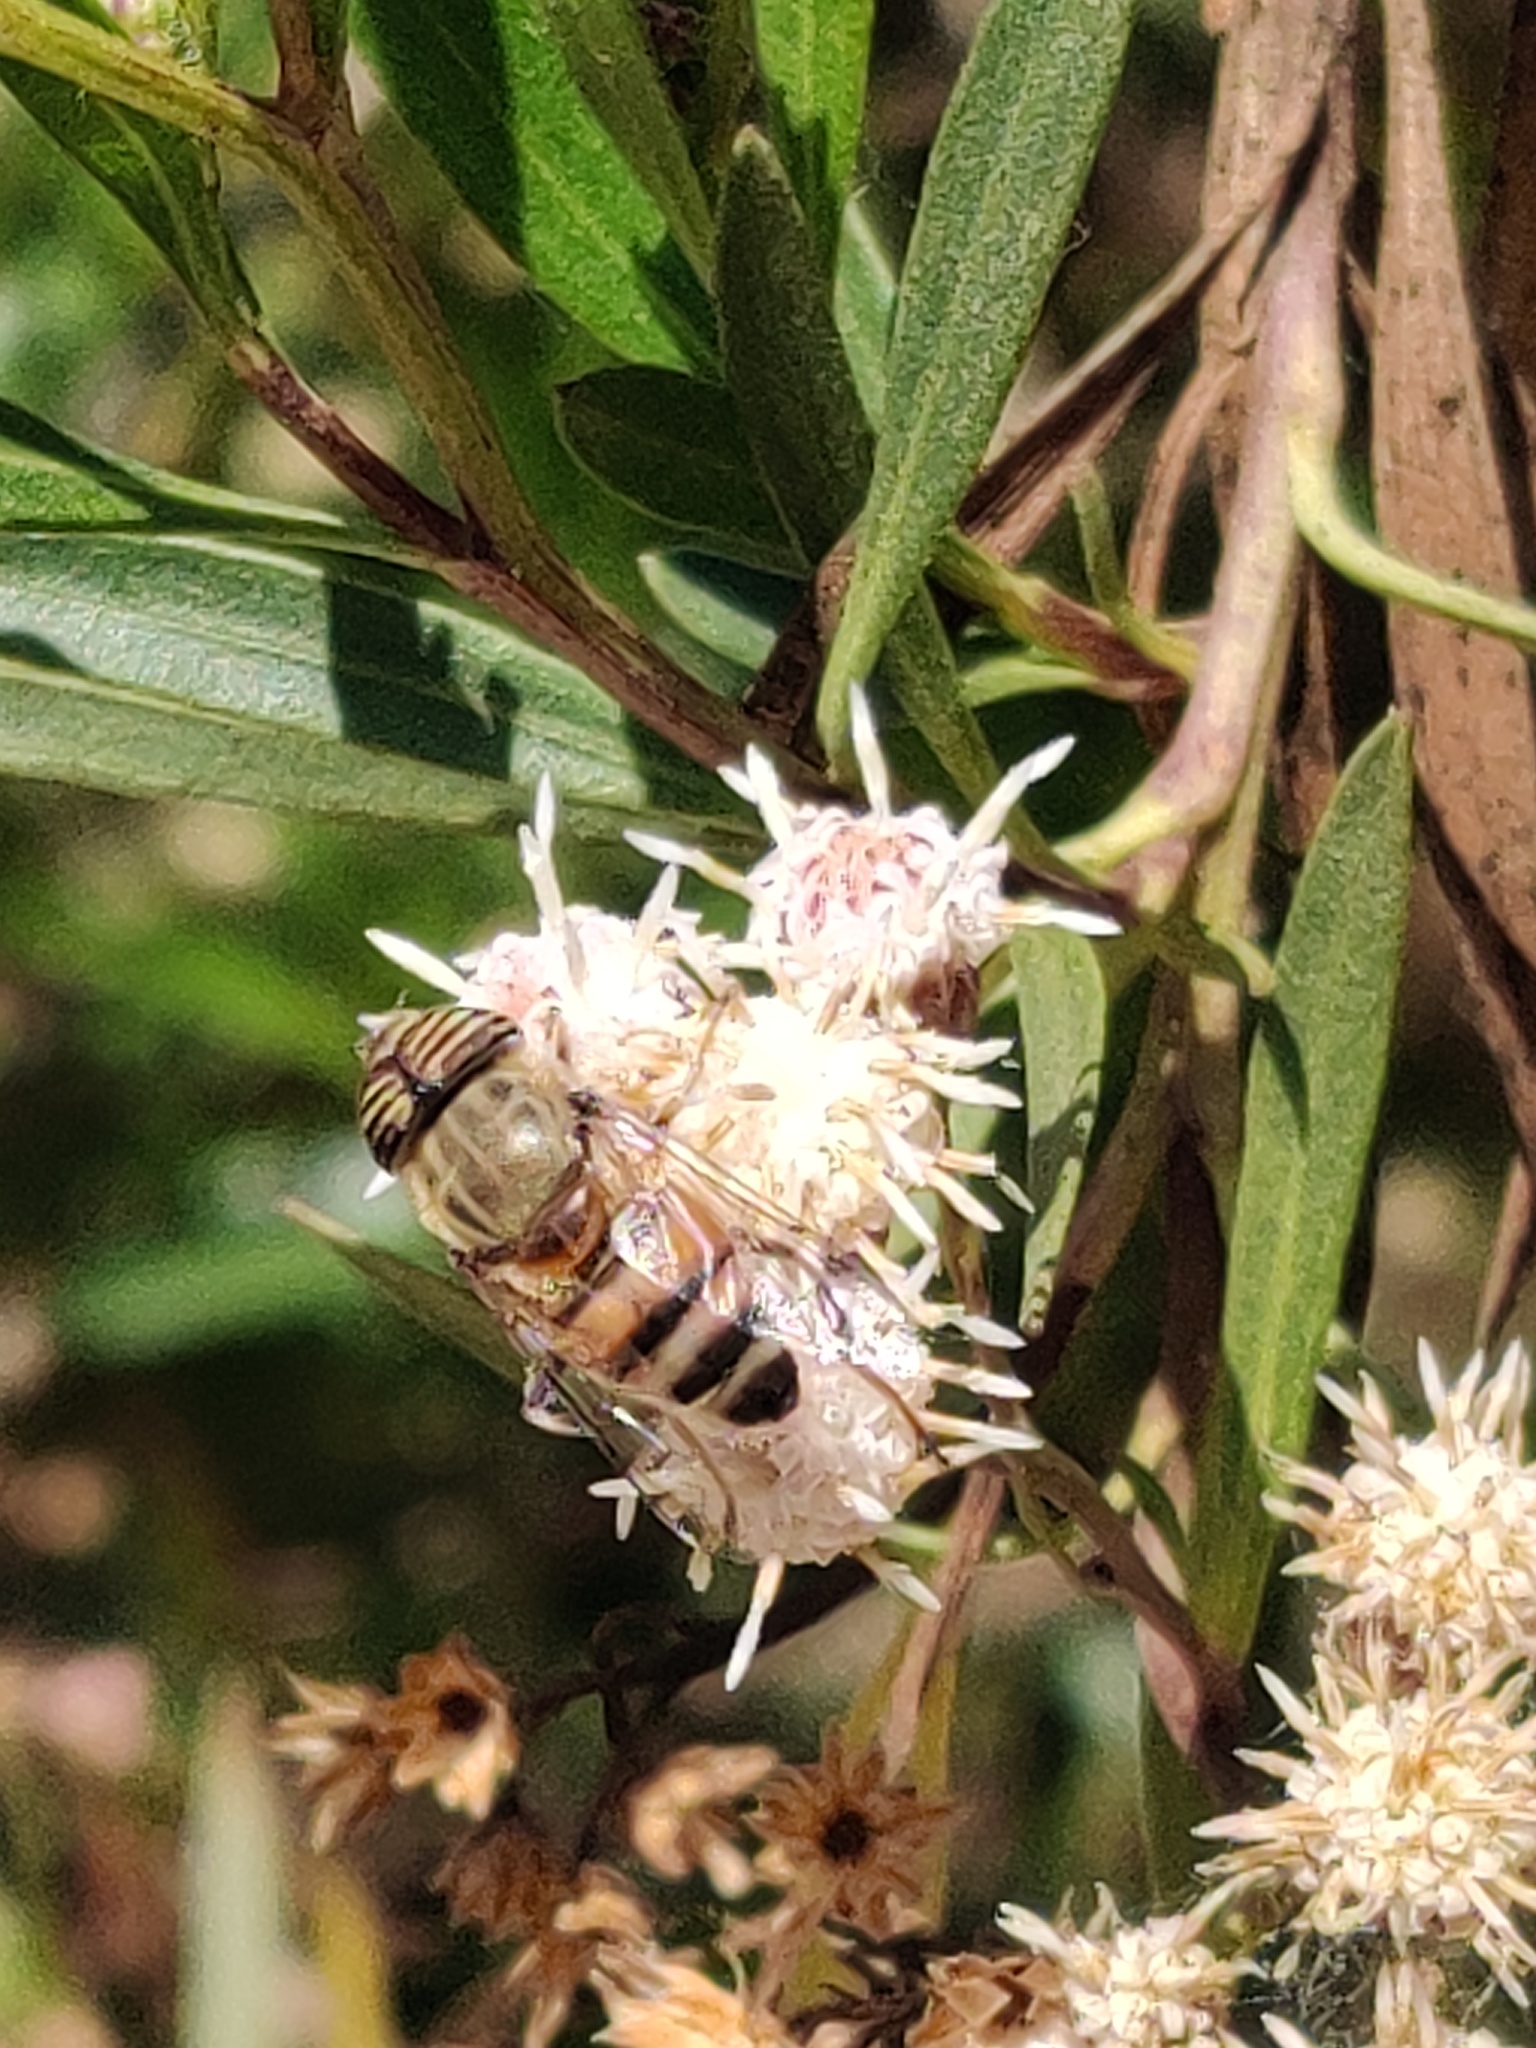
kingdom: Animalia
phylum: Arthropoda
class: Insecta
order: Diptera
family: Syrphidae
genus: Eristalinus
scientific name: Eristalinus taeniops
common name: Syrphid fly
